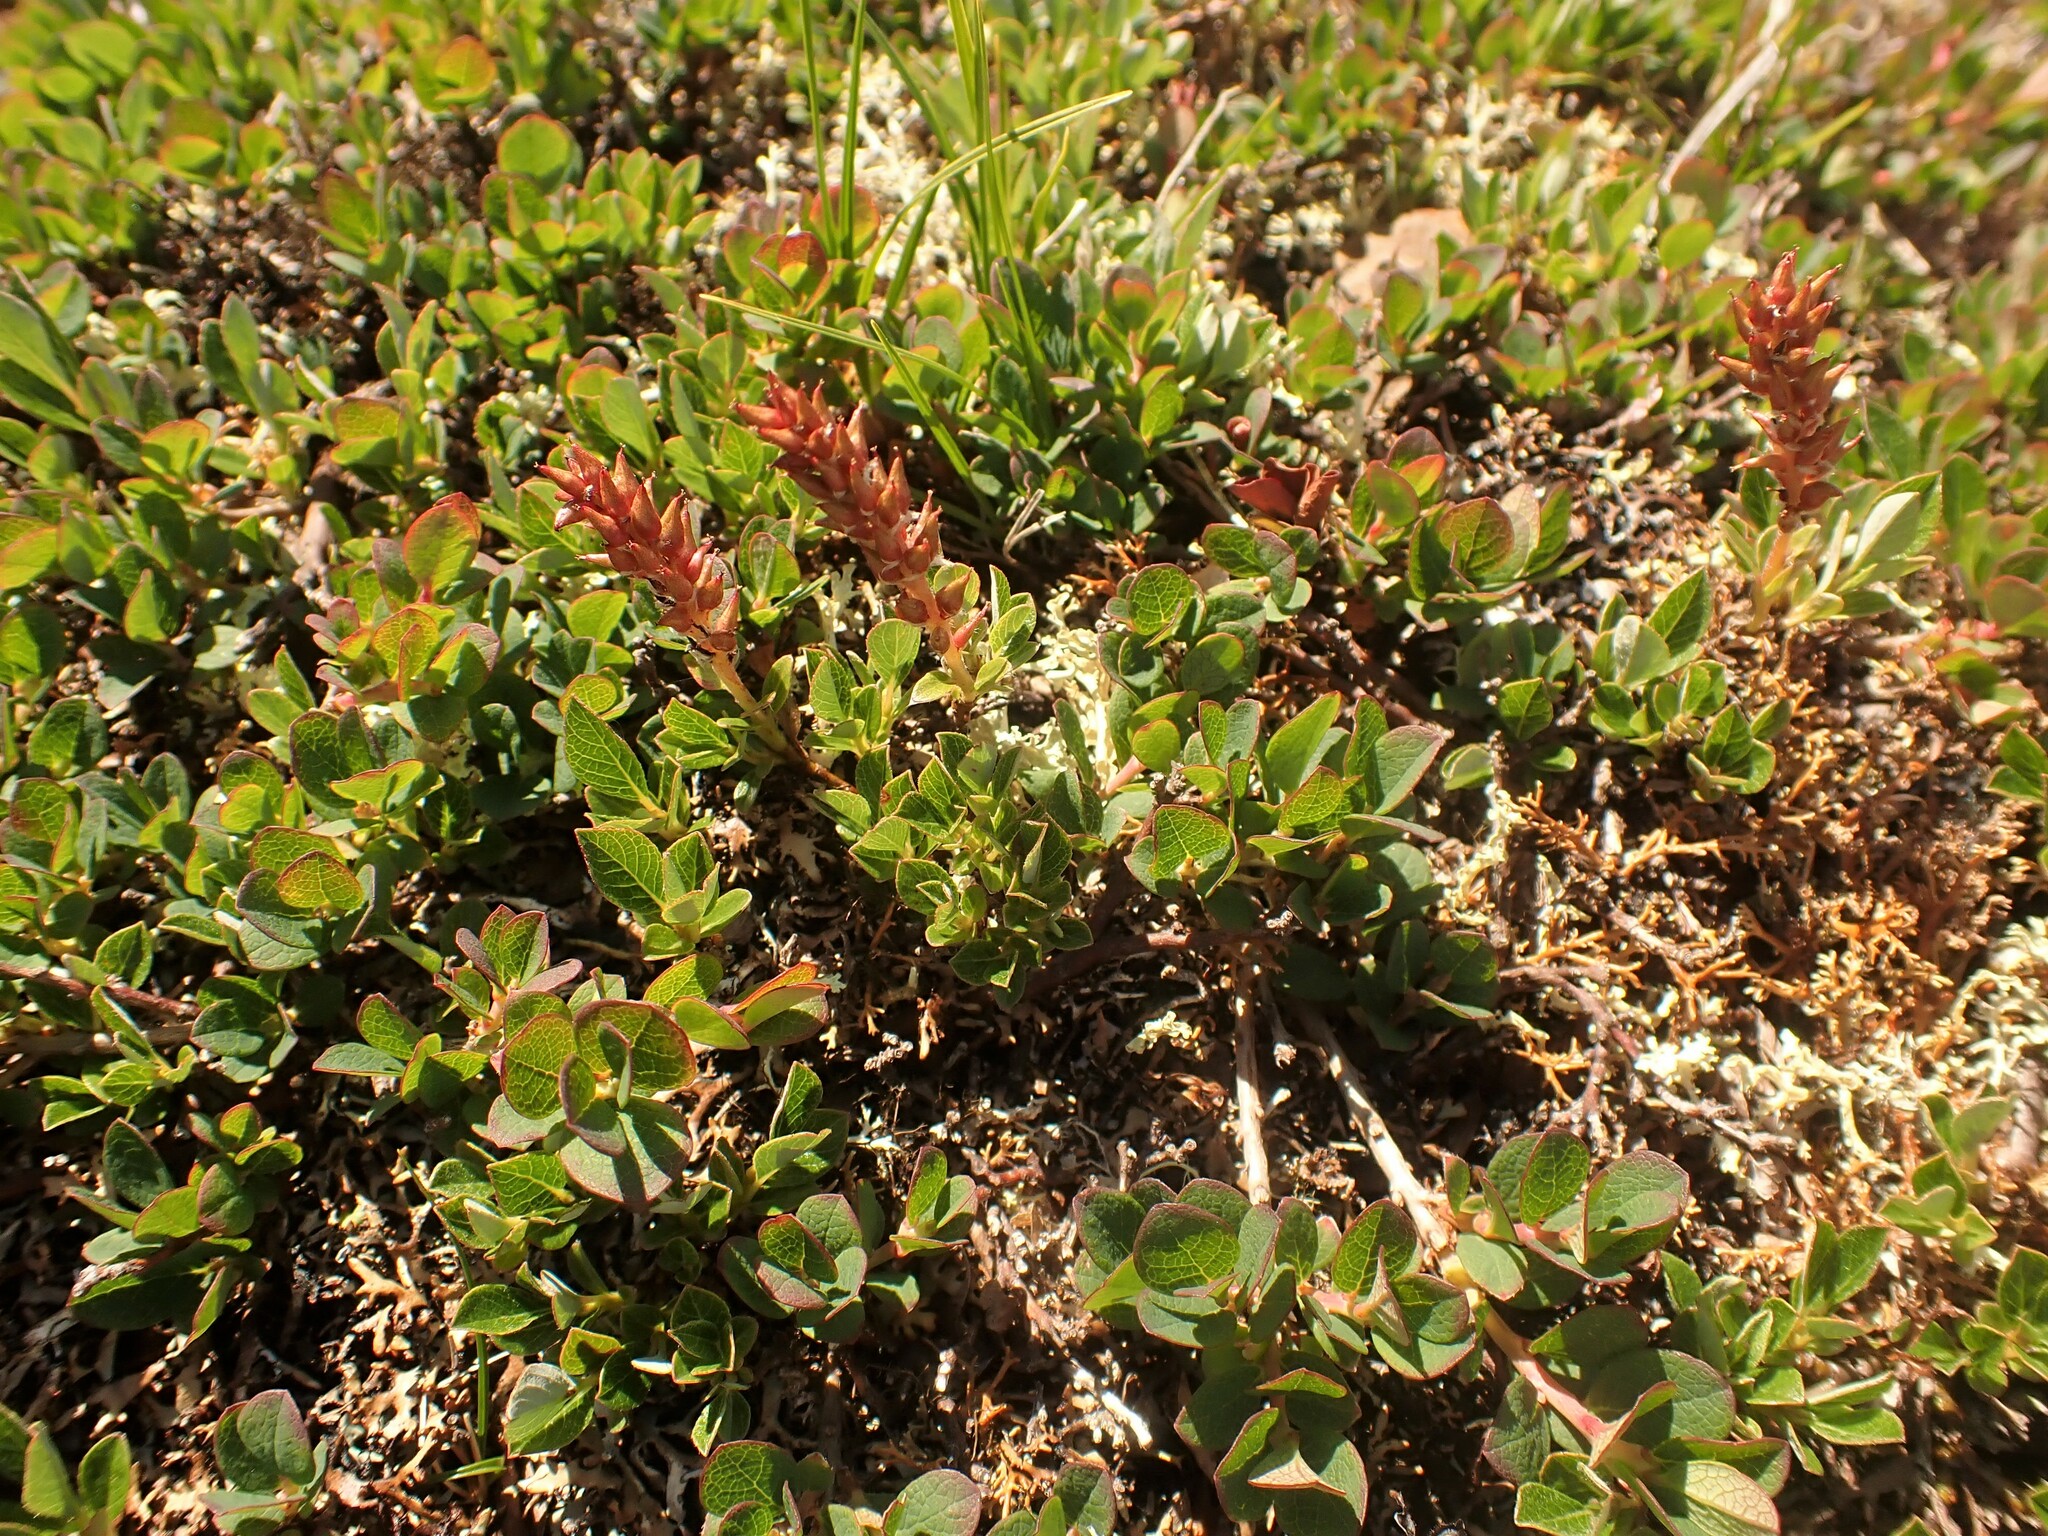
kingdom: Plantae
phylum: Tracheophyta
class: Magnoliopsida
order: Malpighiales
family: Salicaceae
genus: Salix
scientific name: Salix uva-ursi
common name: Bearberry willow
